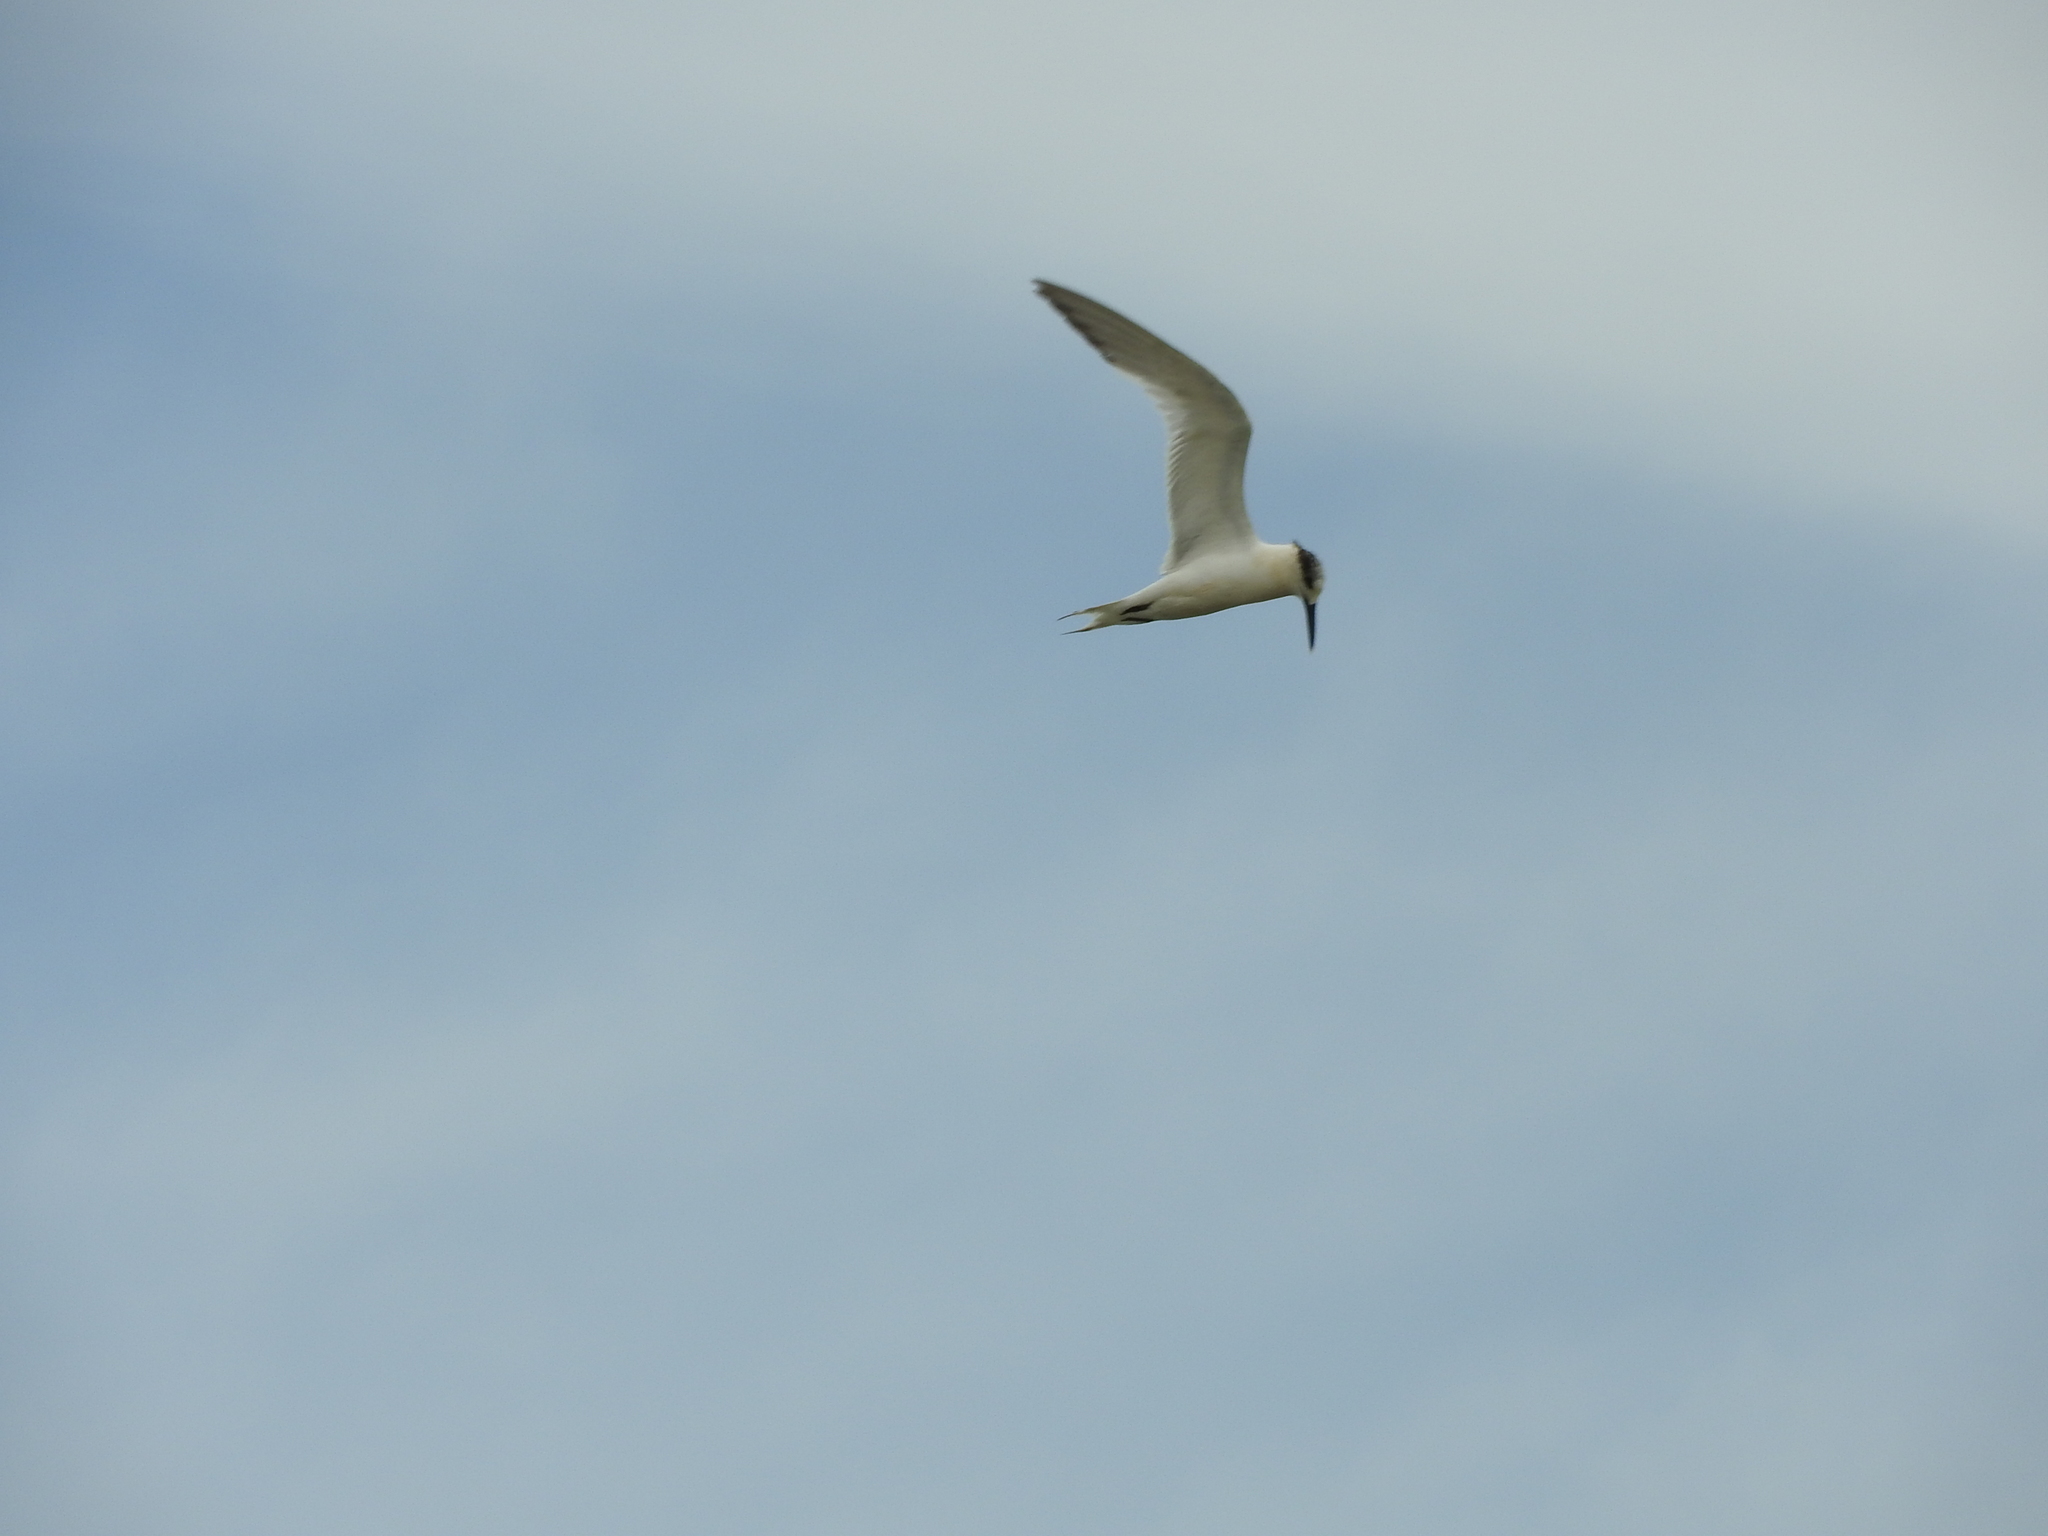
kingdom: Animalia
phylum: Chordata
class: Aves
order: Charadriiformes
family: Laridae
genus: Thalasseus
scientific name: Thalasseus sandvicensis
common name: Sandwich tern
